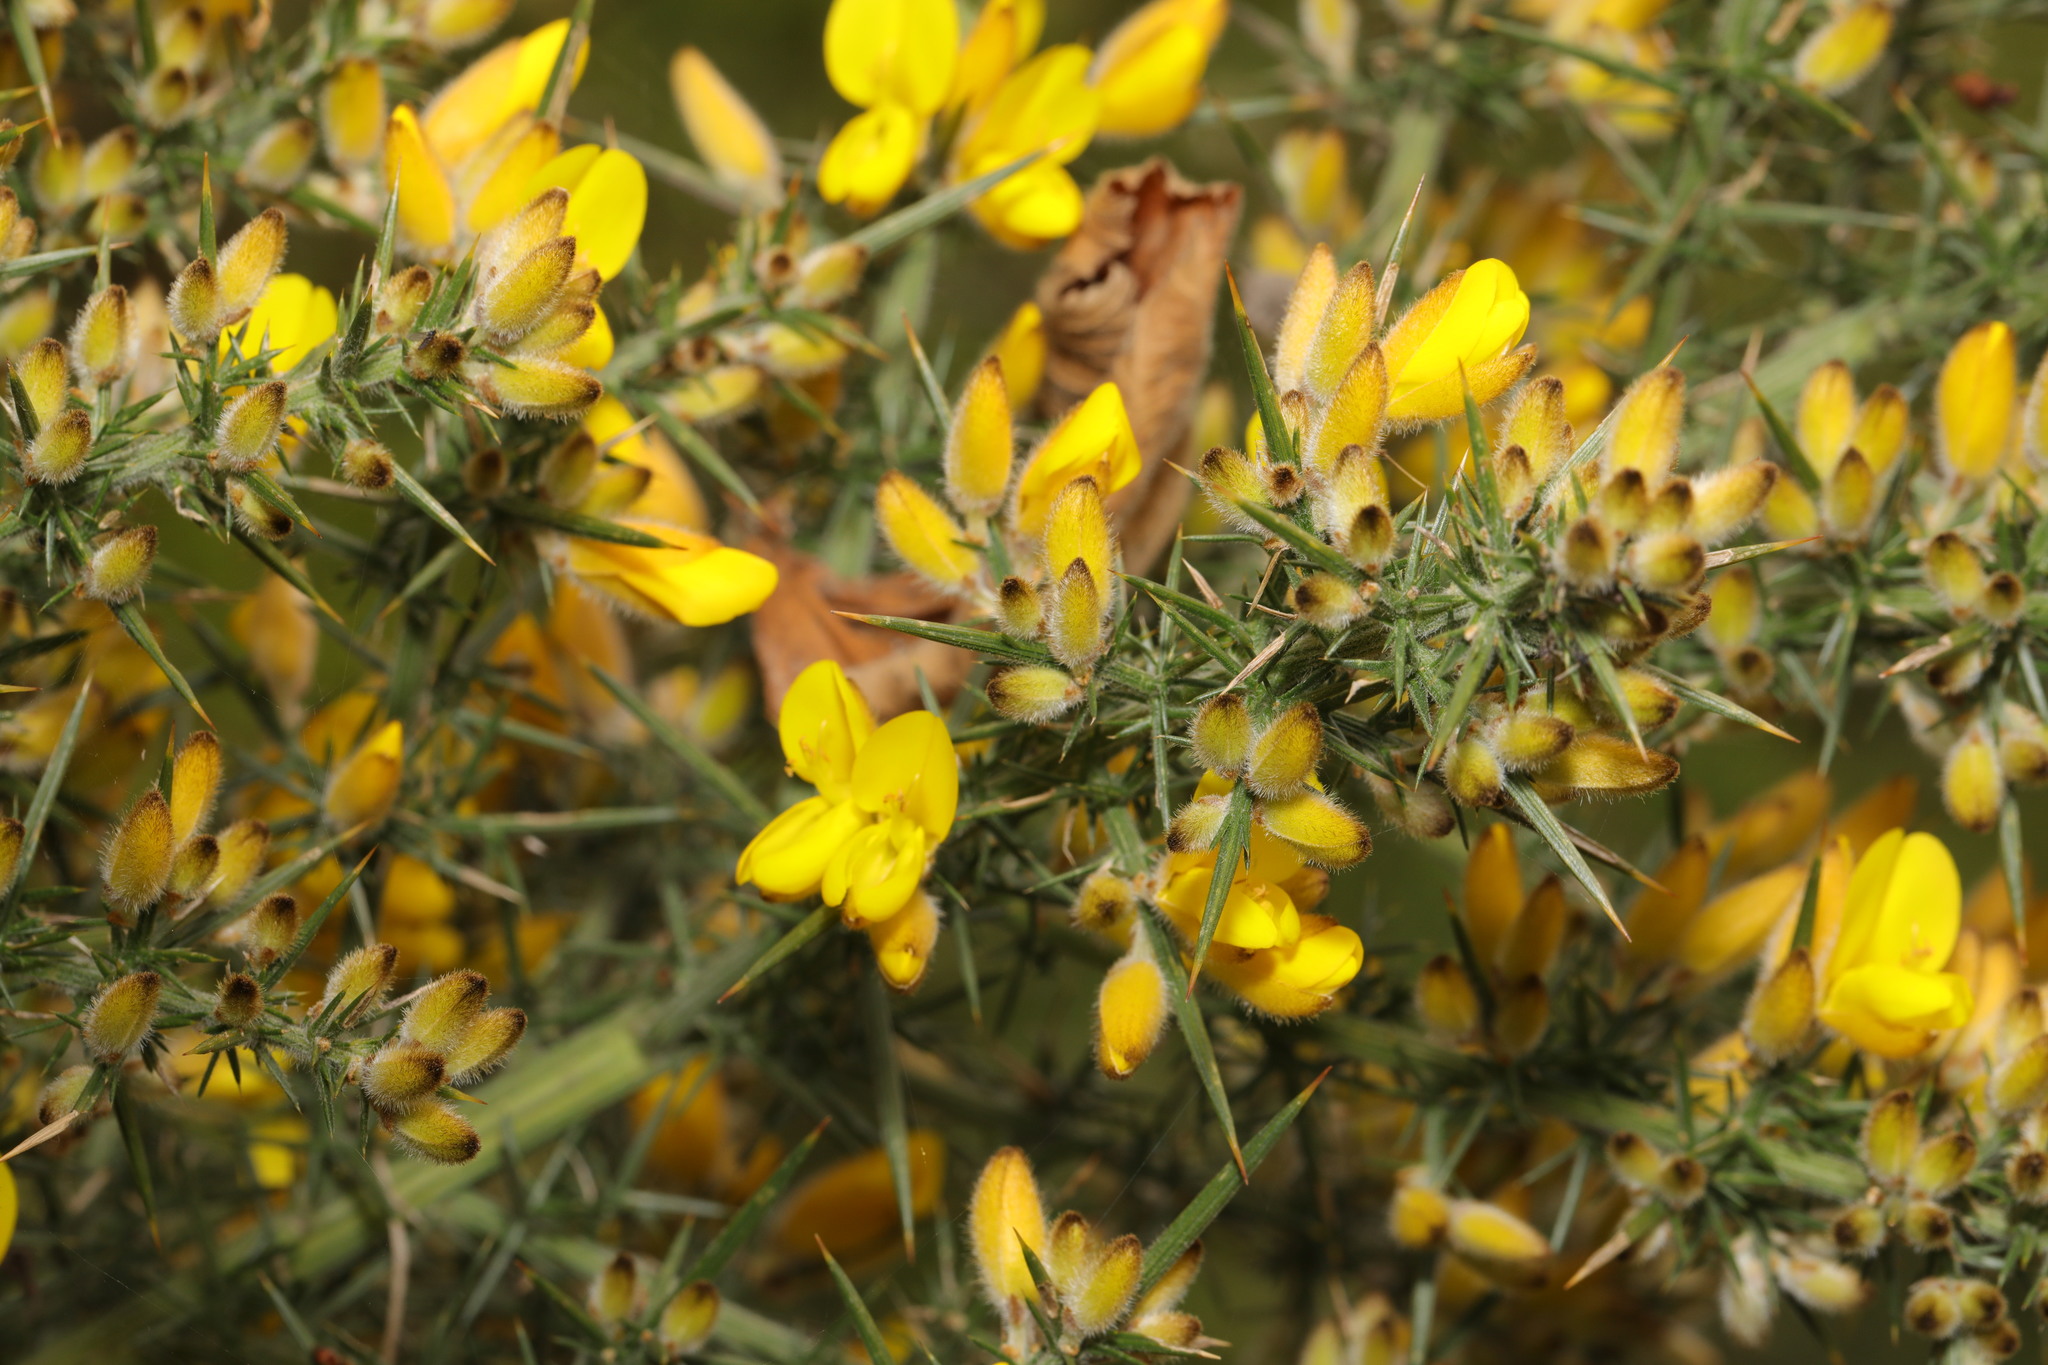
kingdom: Plantae
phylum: Tracheophyta
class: Magnoliopsida
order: Fabales
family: Fabaceae
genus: Ulex
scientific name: Ulex europaeus
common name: Common gorse
